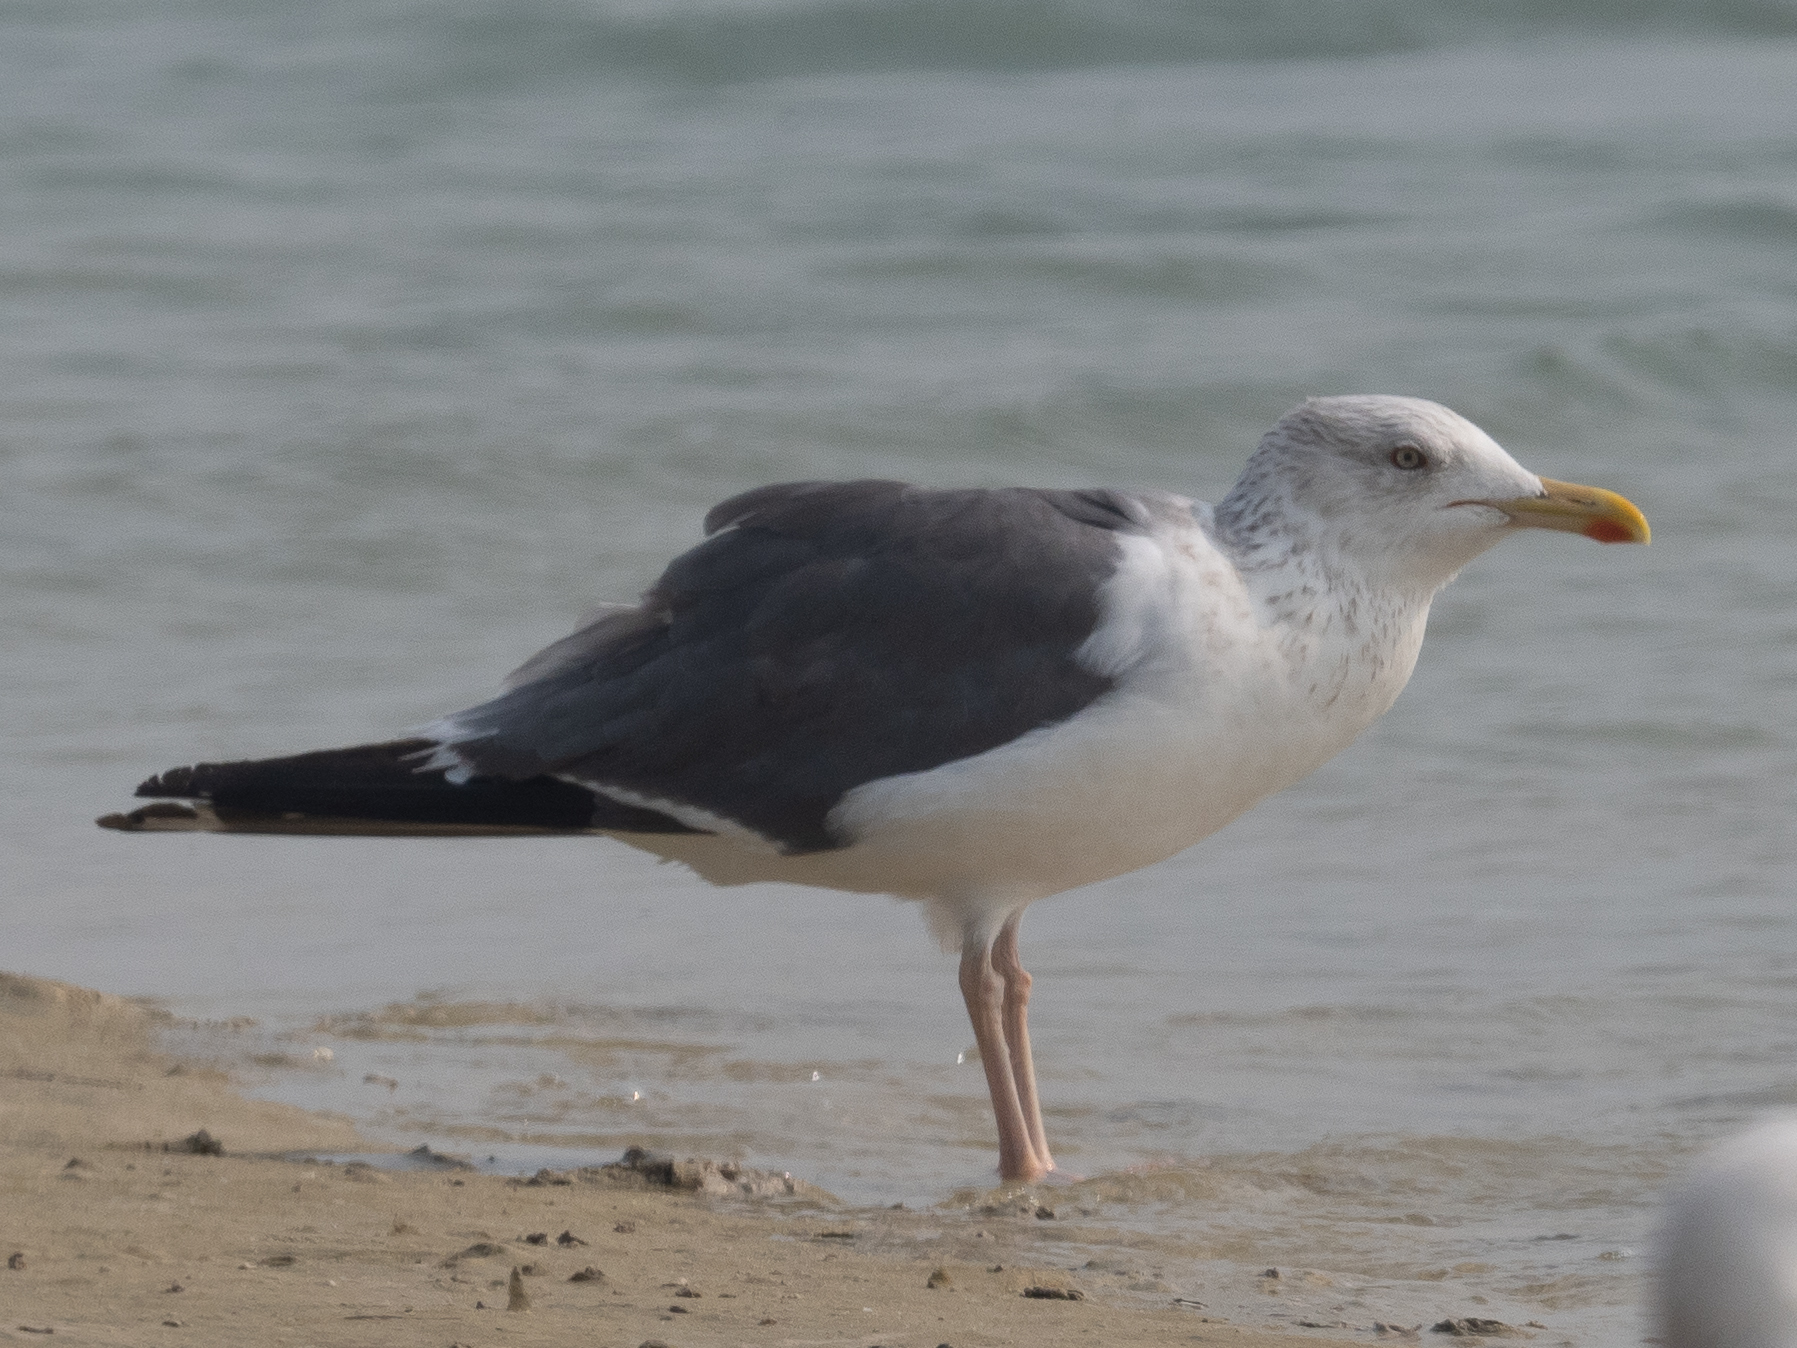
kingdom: Animalia
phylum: Chordata
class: Aves
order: Charadriiformes
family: Laridae
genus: Larus
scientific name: Larus fuscus
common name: Lesser black-backed gull
